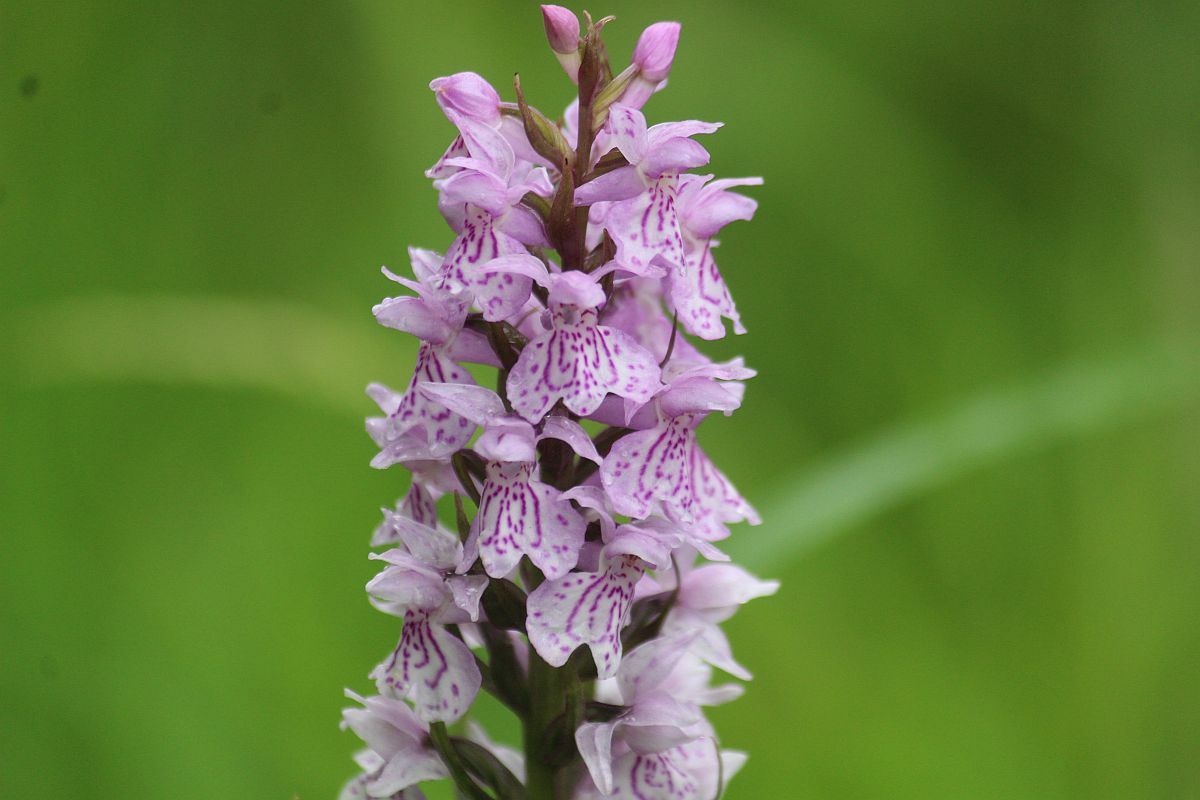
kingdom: Plantae
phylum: Tracheophyta
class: Liliopsida
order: Asparagales
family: Orchidaceae
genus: Dactylorhiza
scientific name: Dactylorhiza maculata
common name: Heath spotted-orchid
